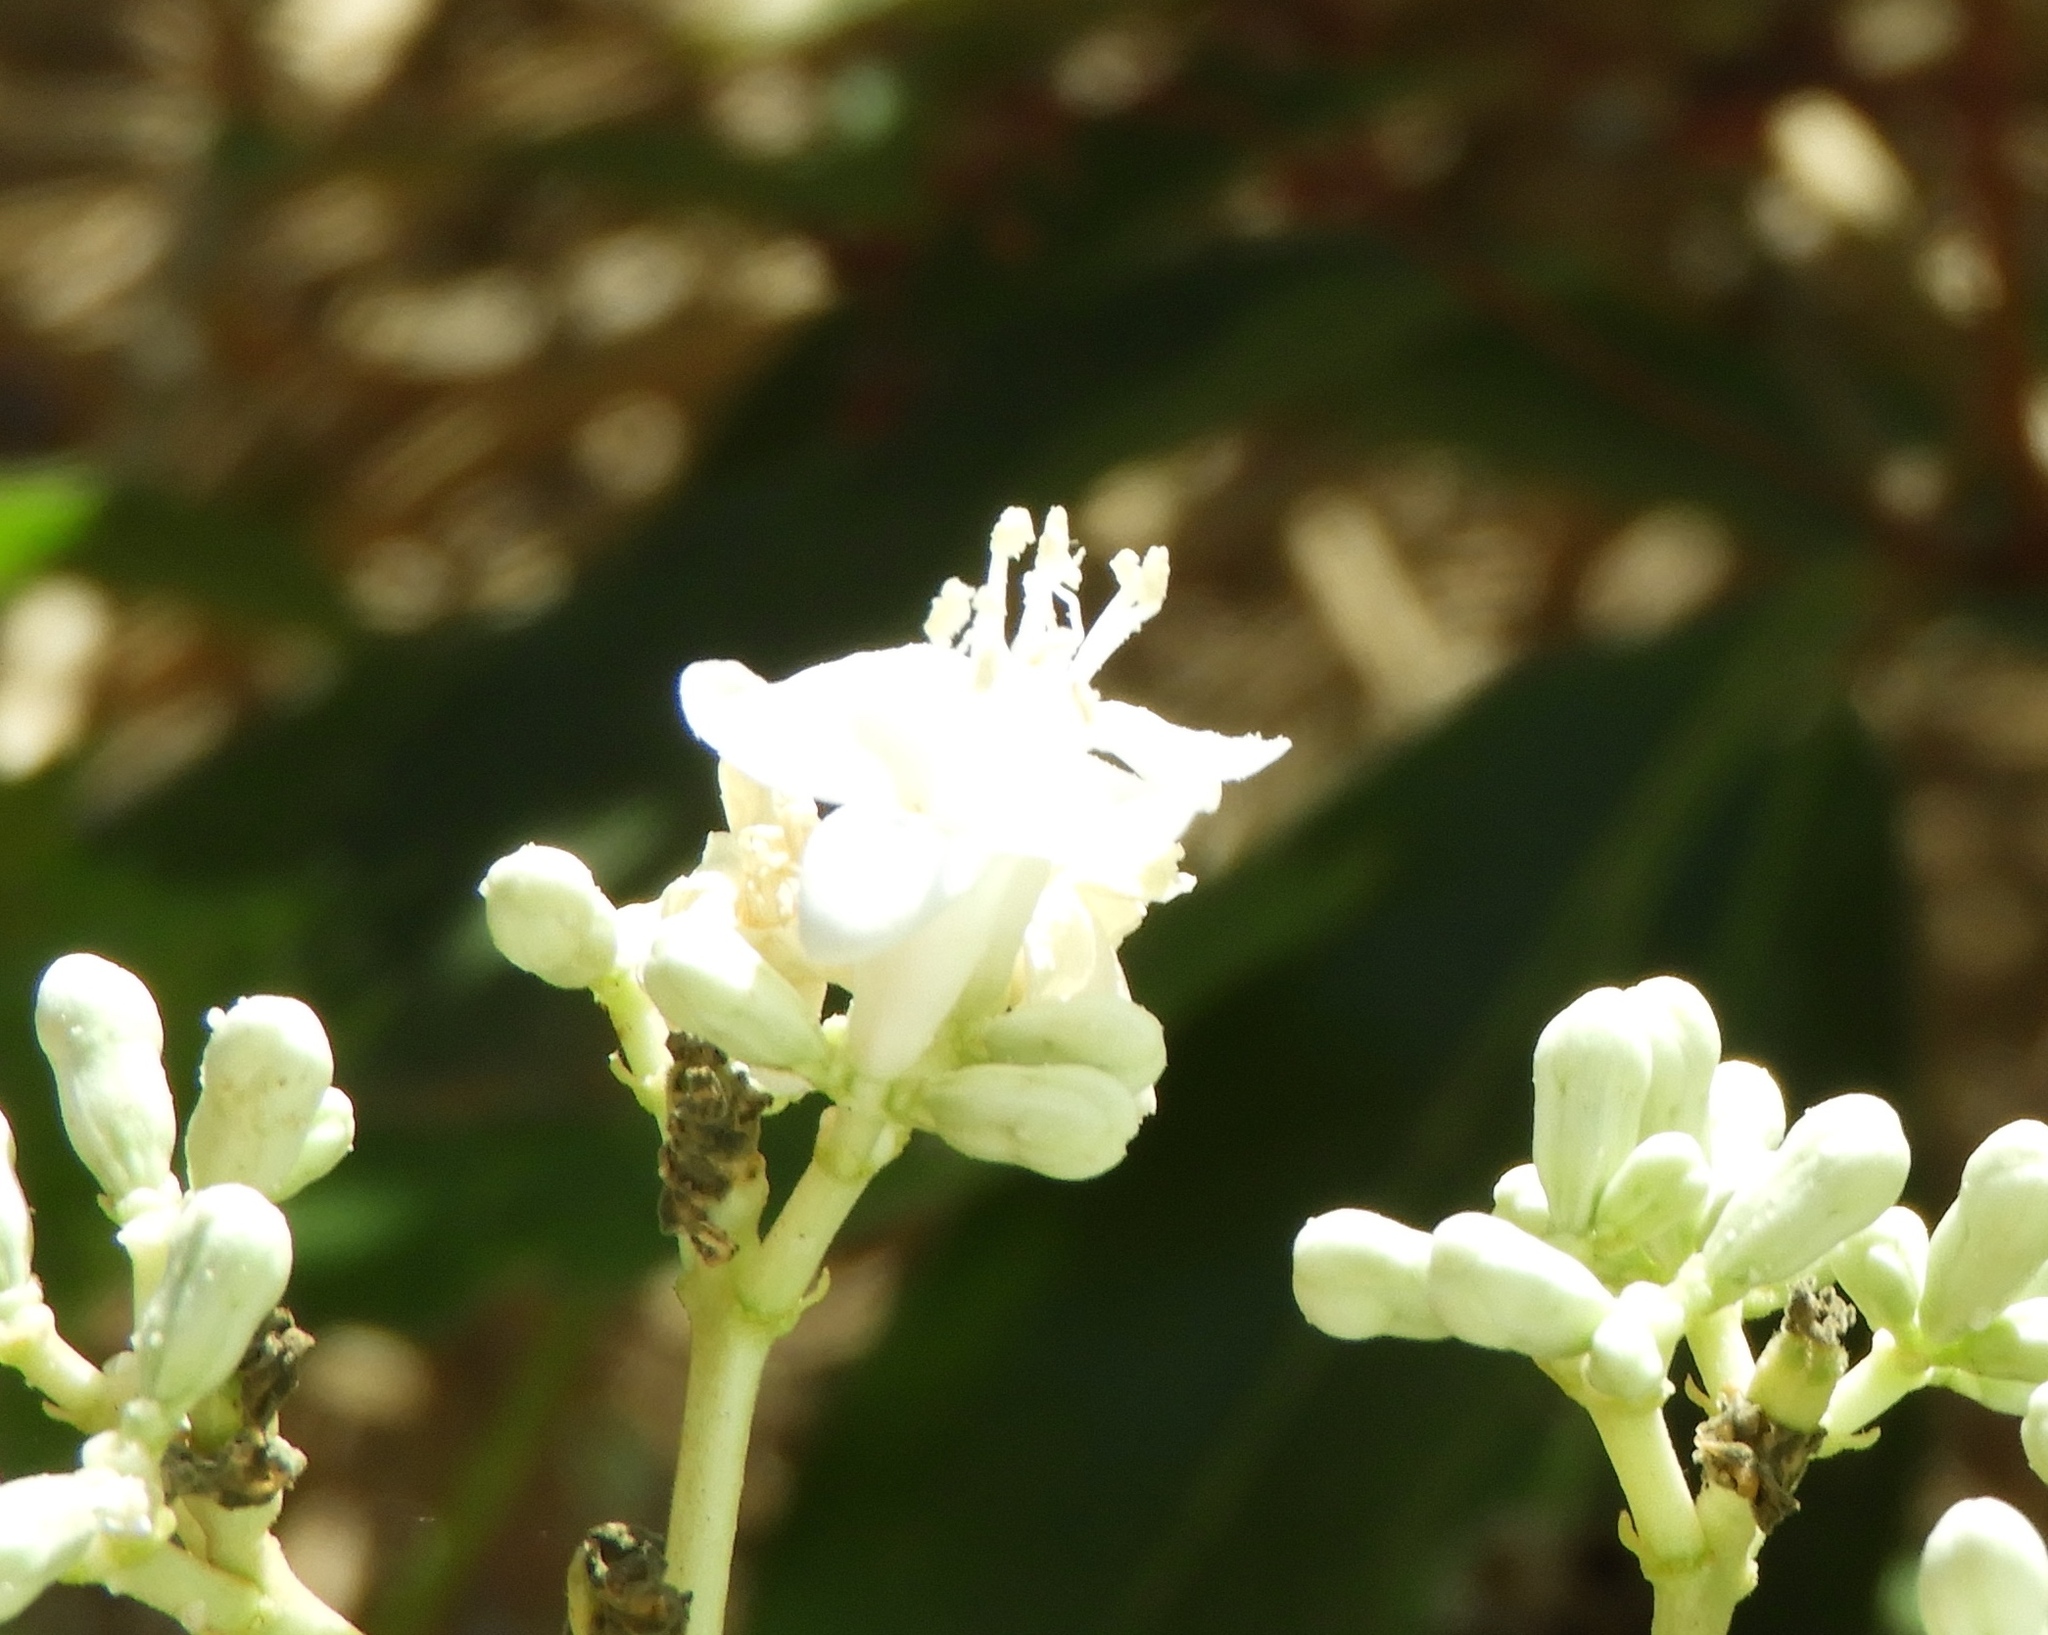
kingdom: Plantae
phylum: Tracheophyta
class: Magnoliopsida
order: Malpighiales
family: Euphorbiaceae
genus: Cnidoscolus
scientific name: Cnidoscolus sinaloensis
